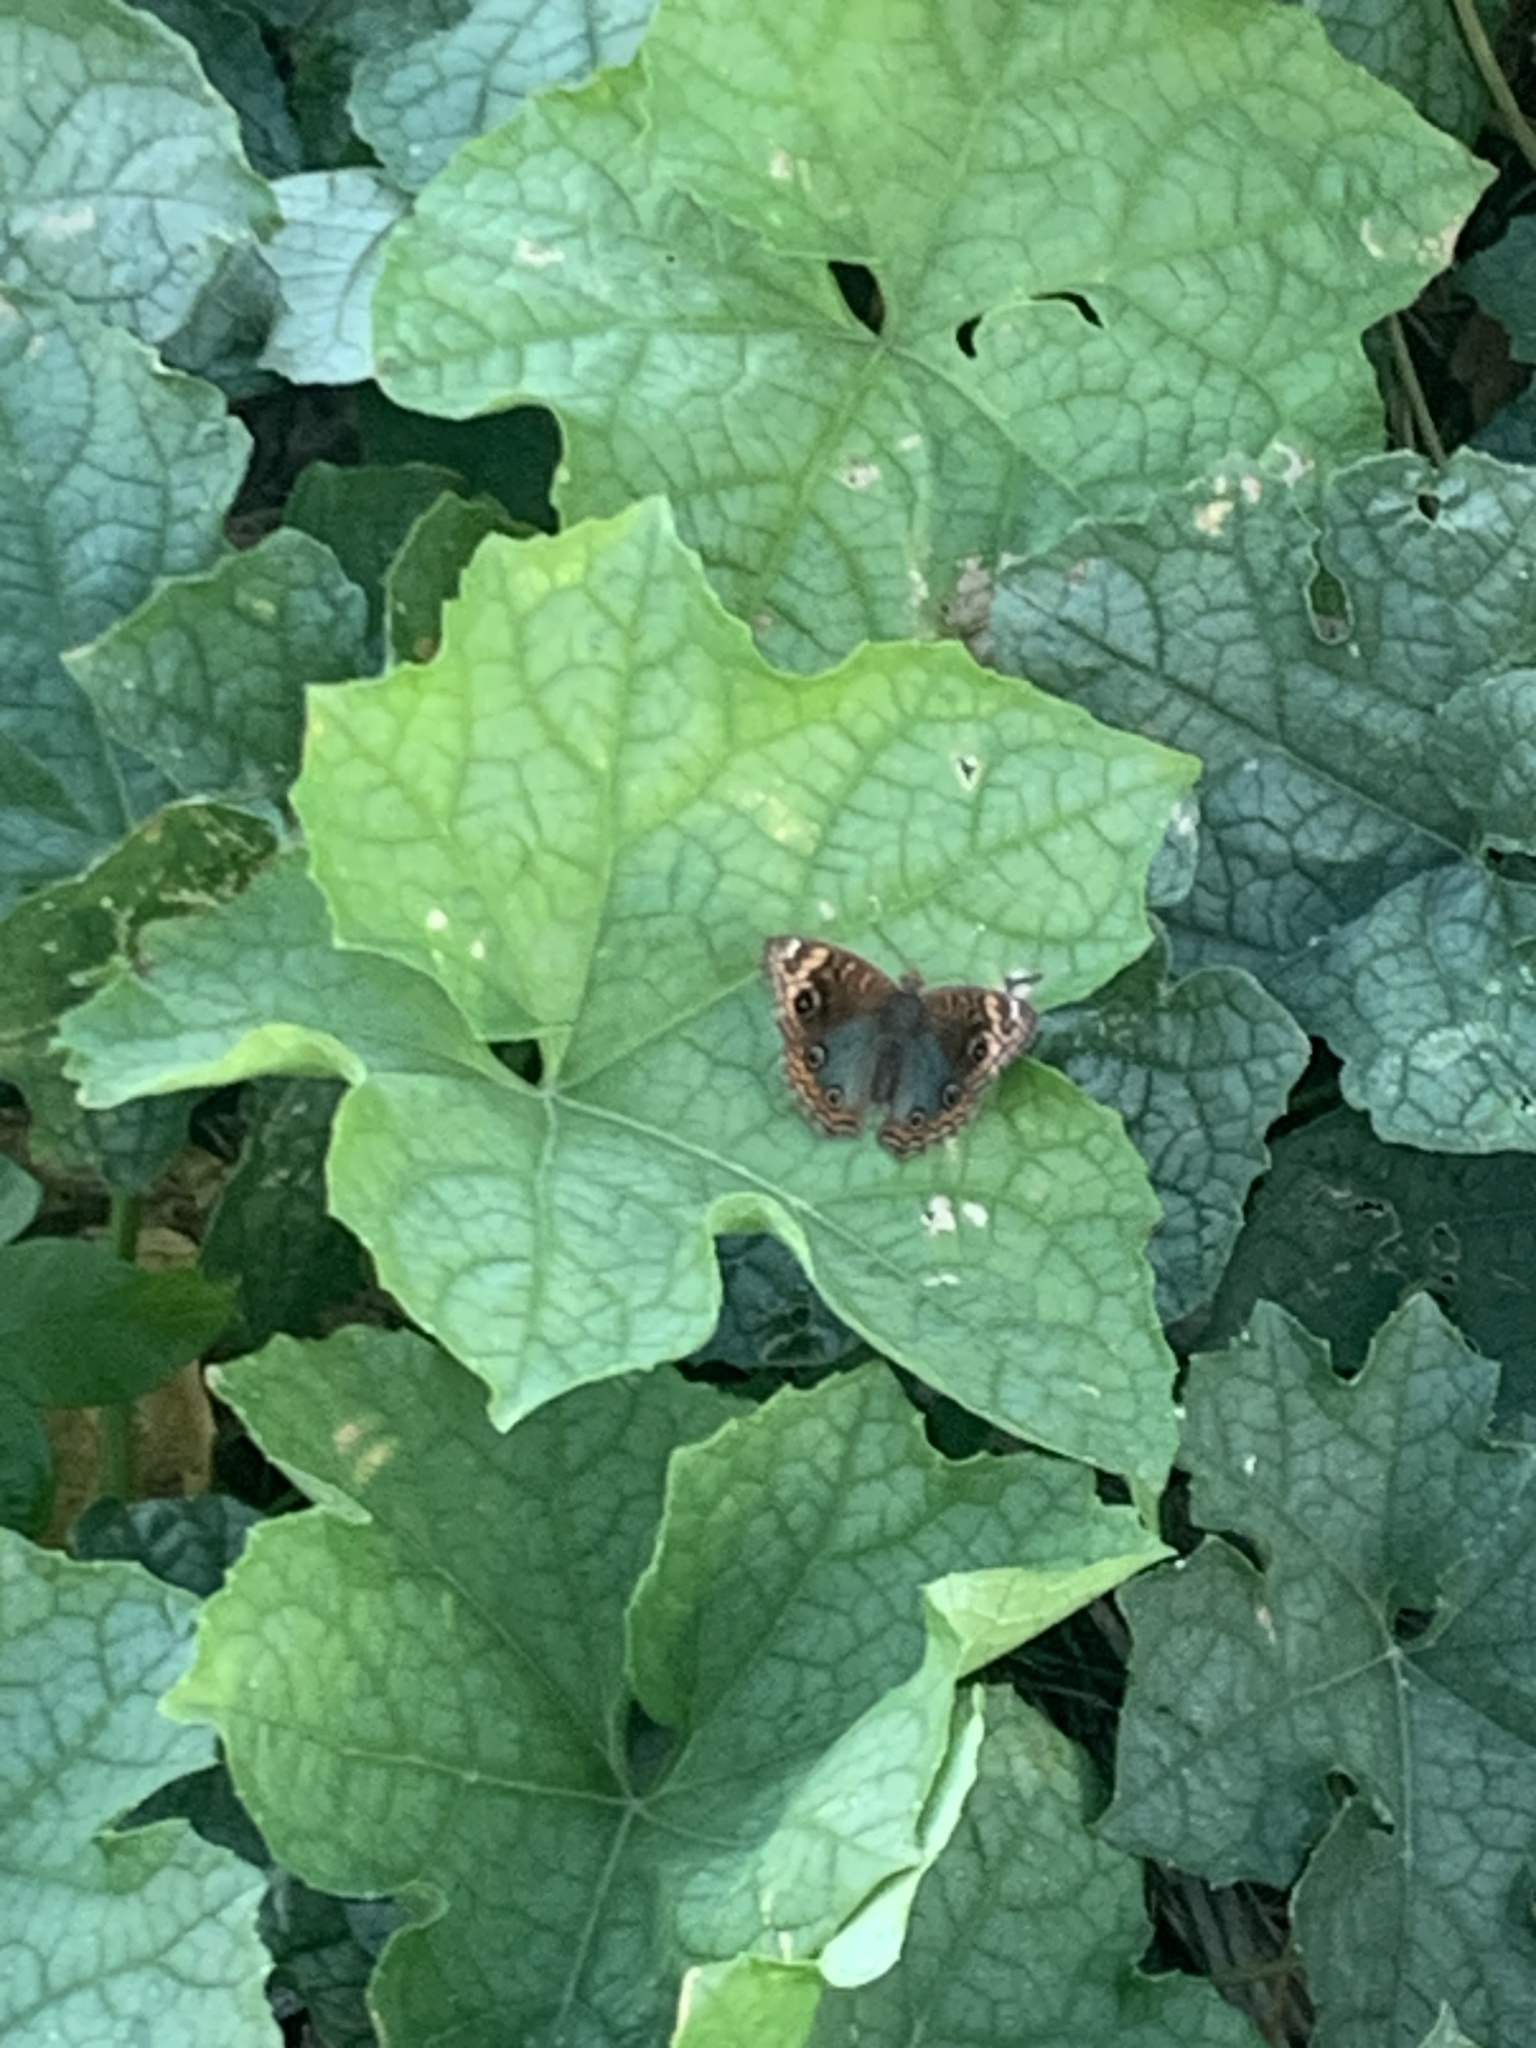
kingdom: Animalia
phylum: Arthropoda
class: Insecta
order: Lepidoptera
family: Nymphalidae
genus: Junonia
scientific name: Junonia lavinia
